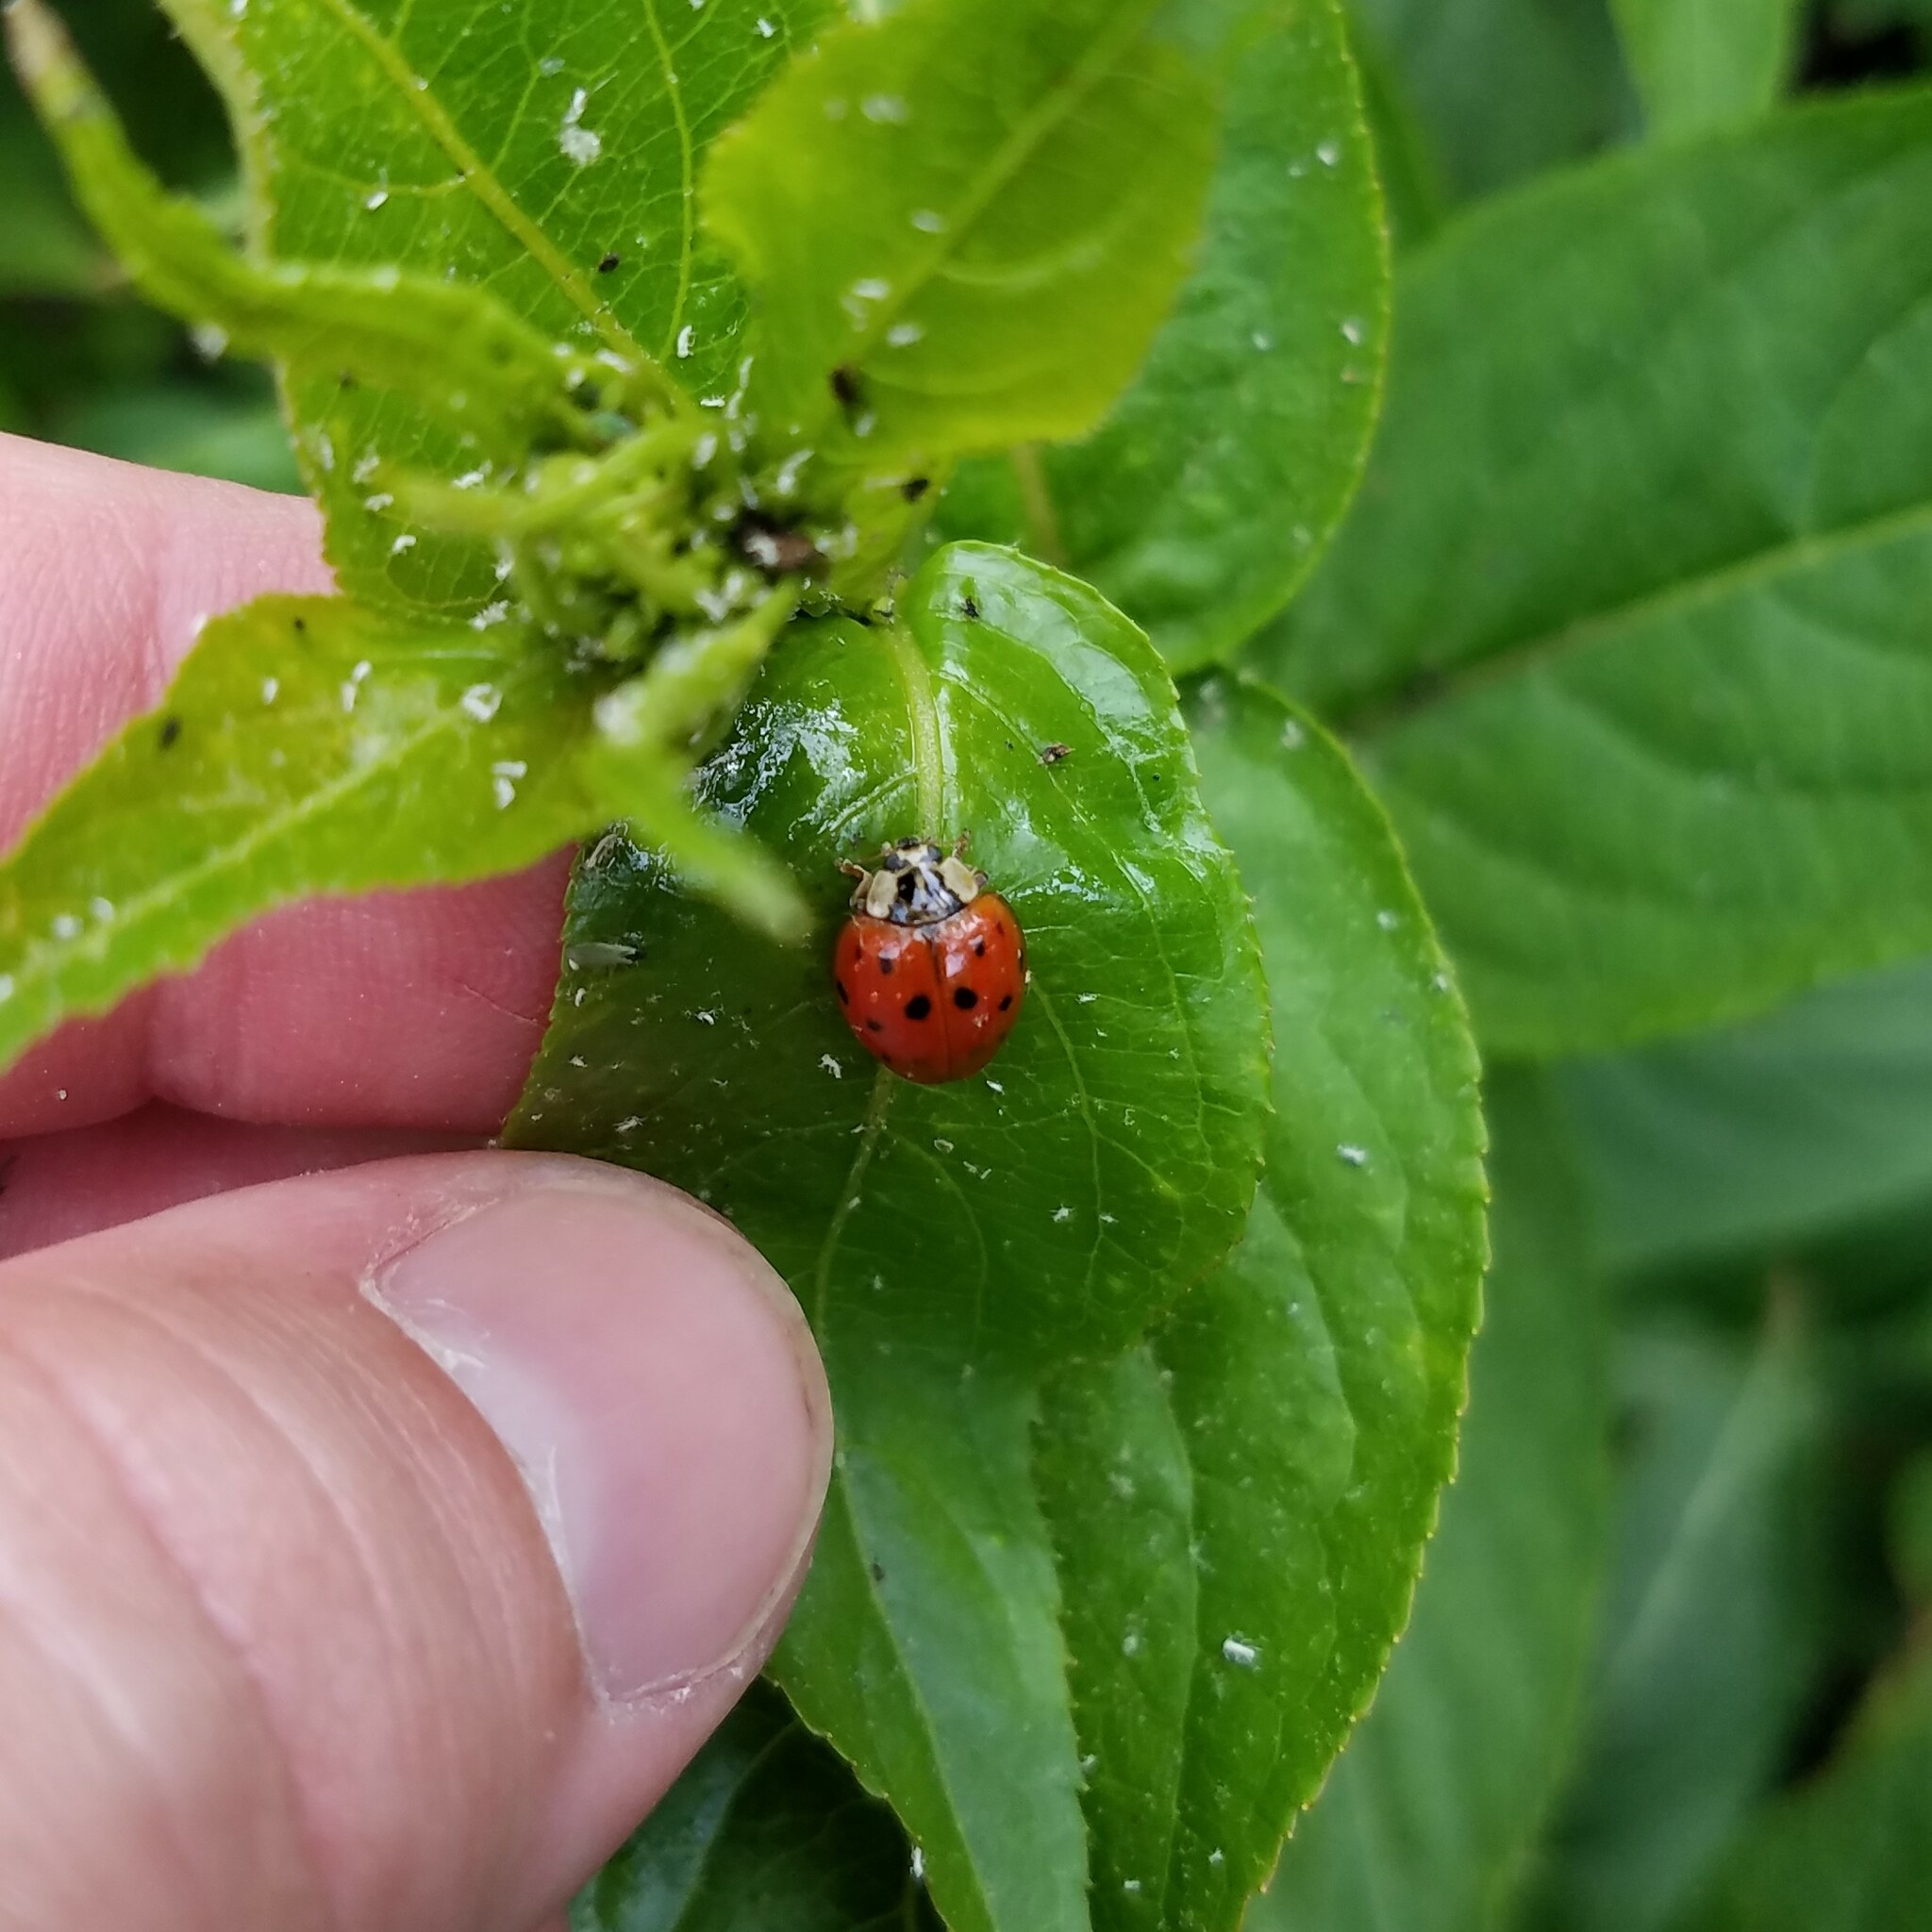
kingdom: Animalia
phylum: Arthropoda
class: Insecta
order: Coleoptera
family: Coccinellidae
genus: Harmonia
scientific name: Harmonia axyridis
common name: Harlequin ladybird
